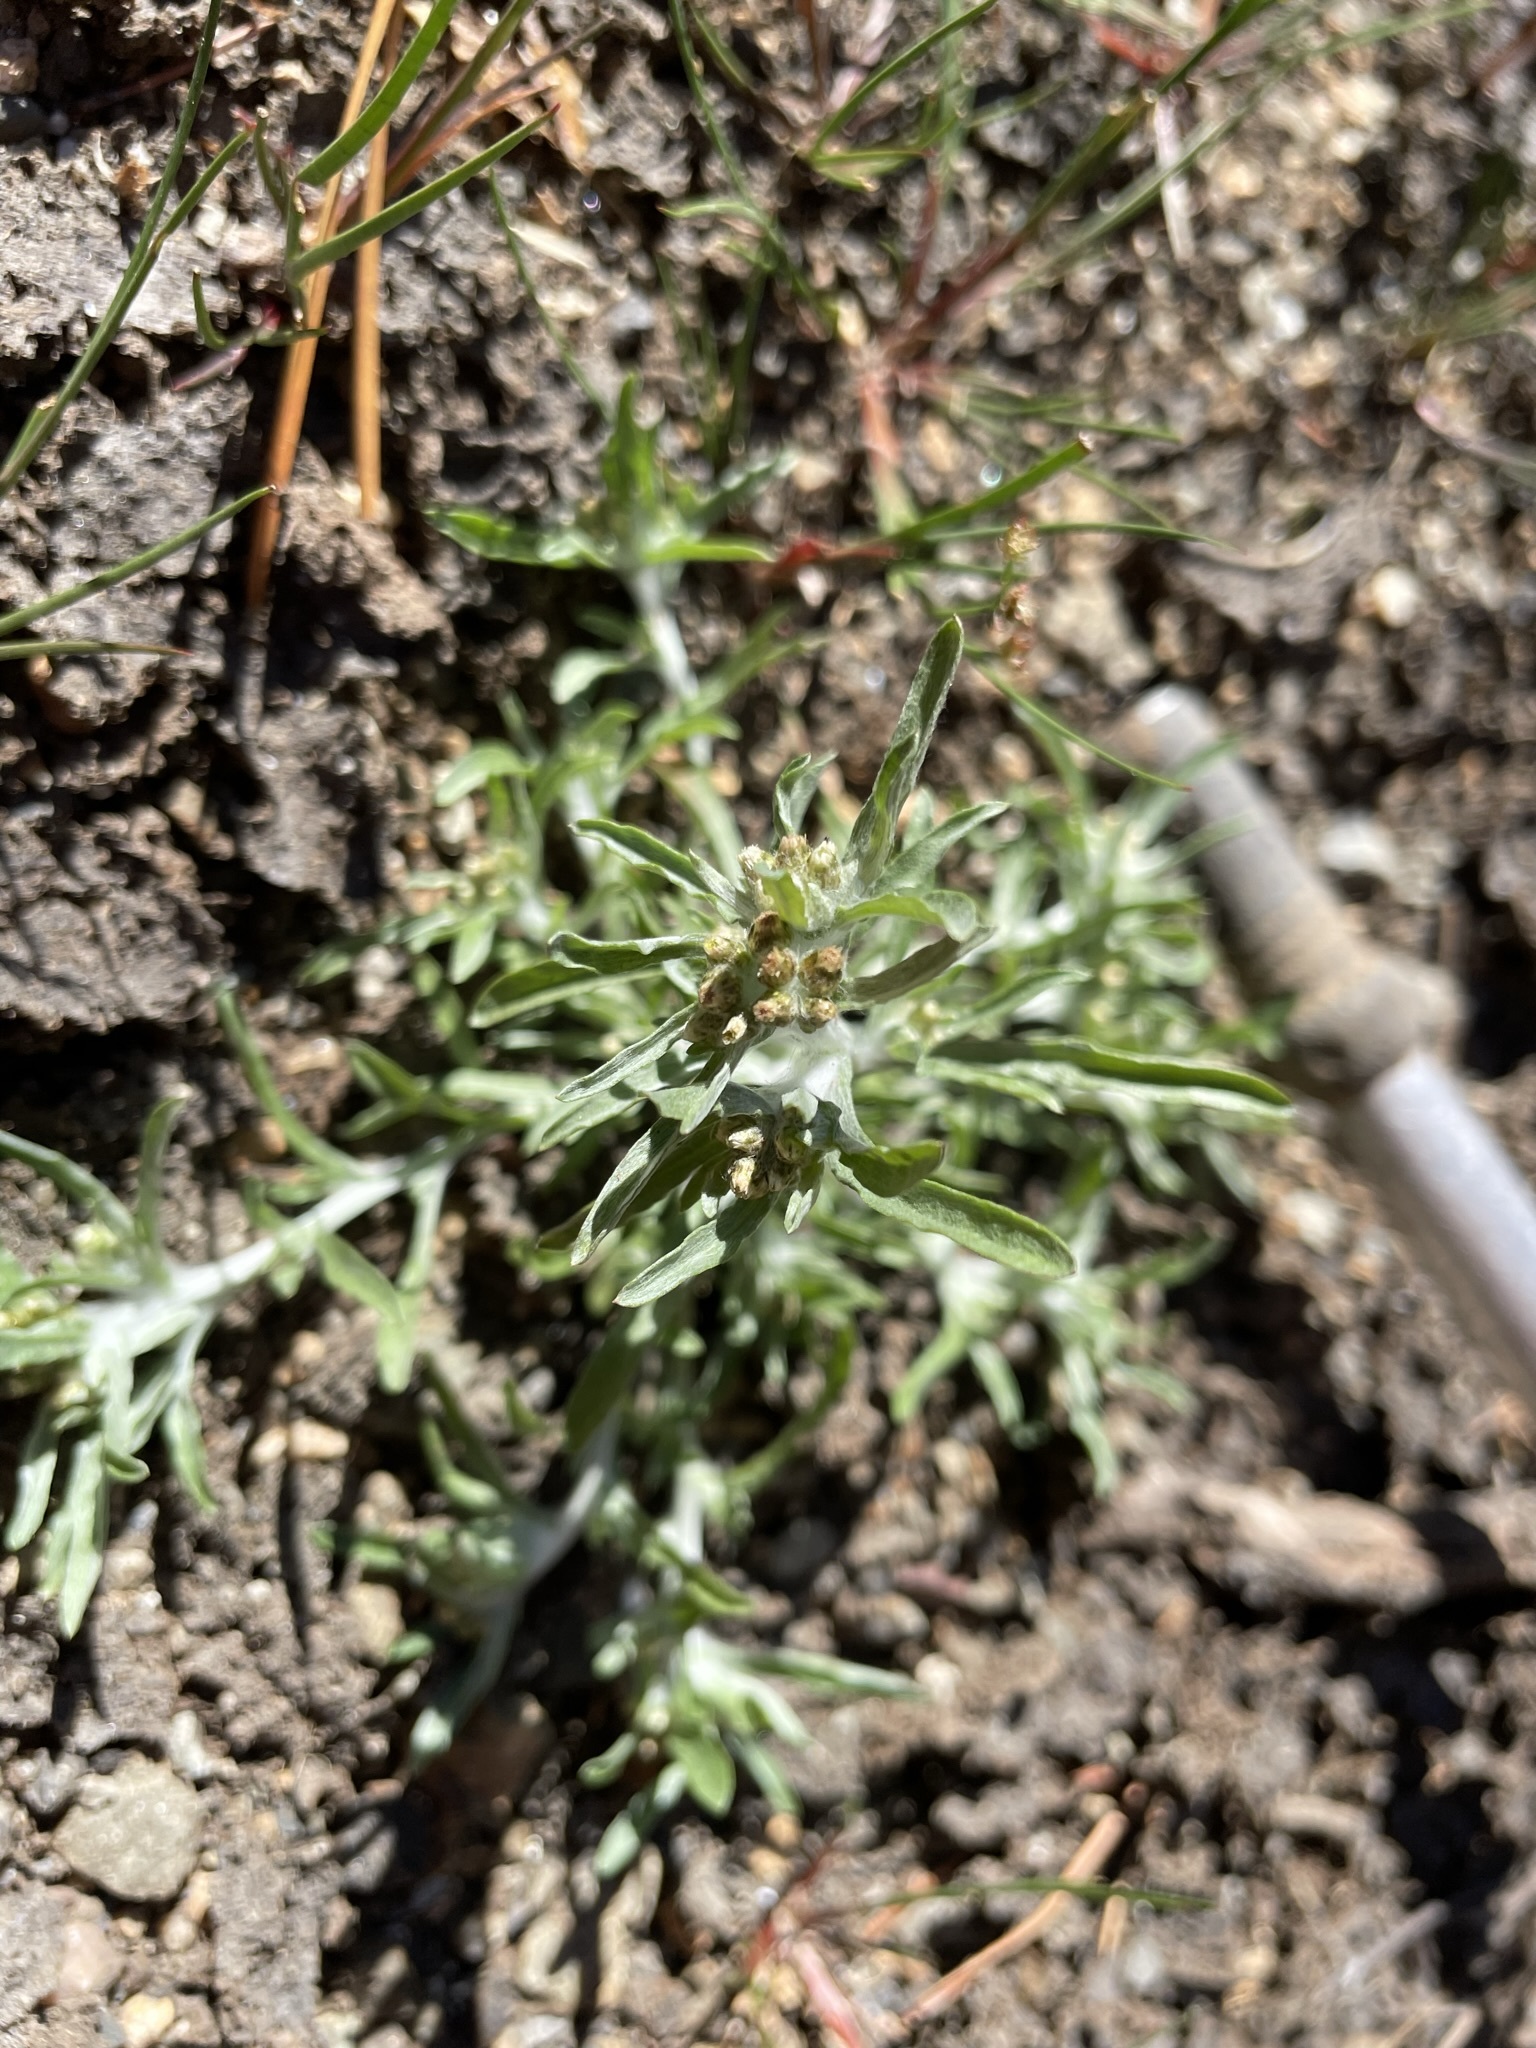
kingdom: Plantae
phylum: Tracheophyta
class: Magnoliopsida
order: Asterales
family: Asteraceae
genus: Gnaphalium
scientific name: Gnaphalium uliginosum
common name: Marsh cudweed
